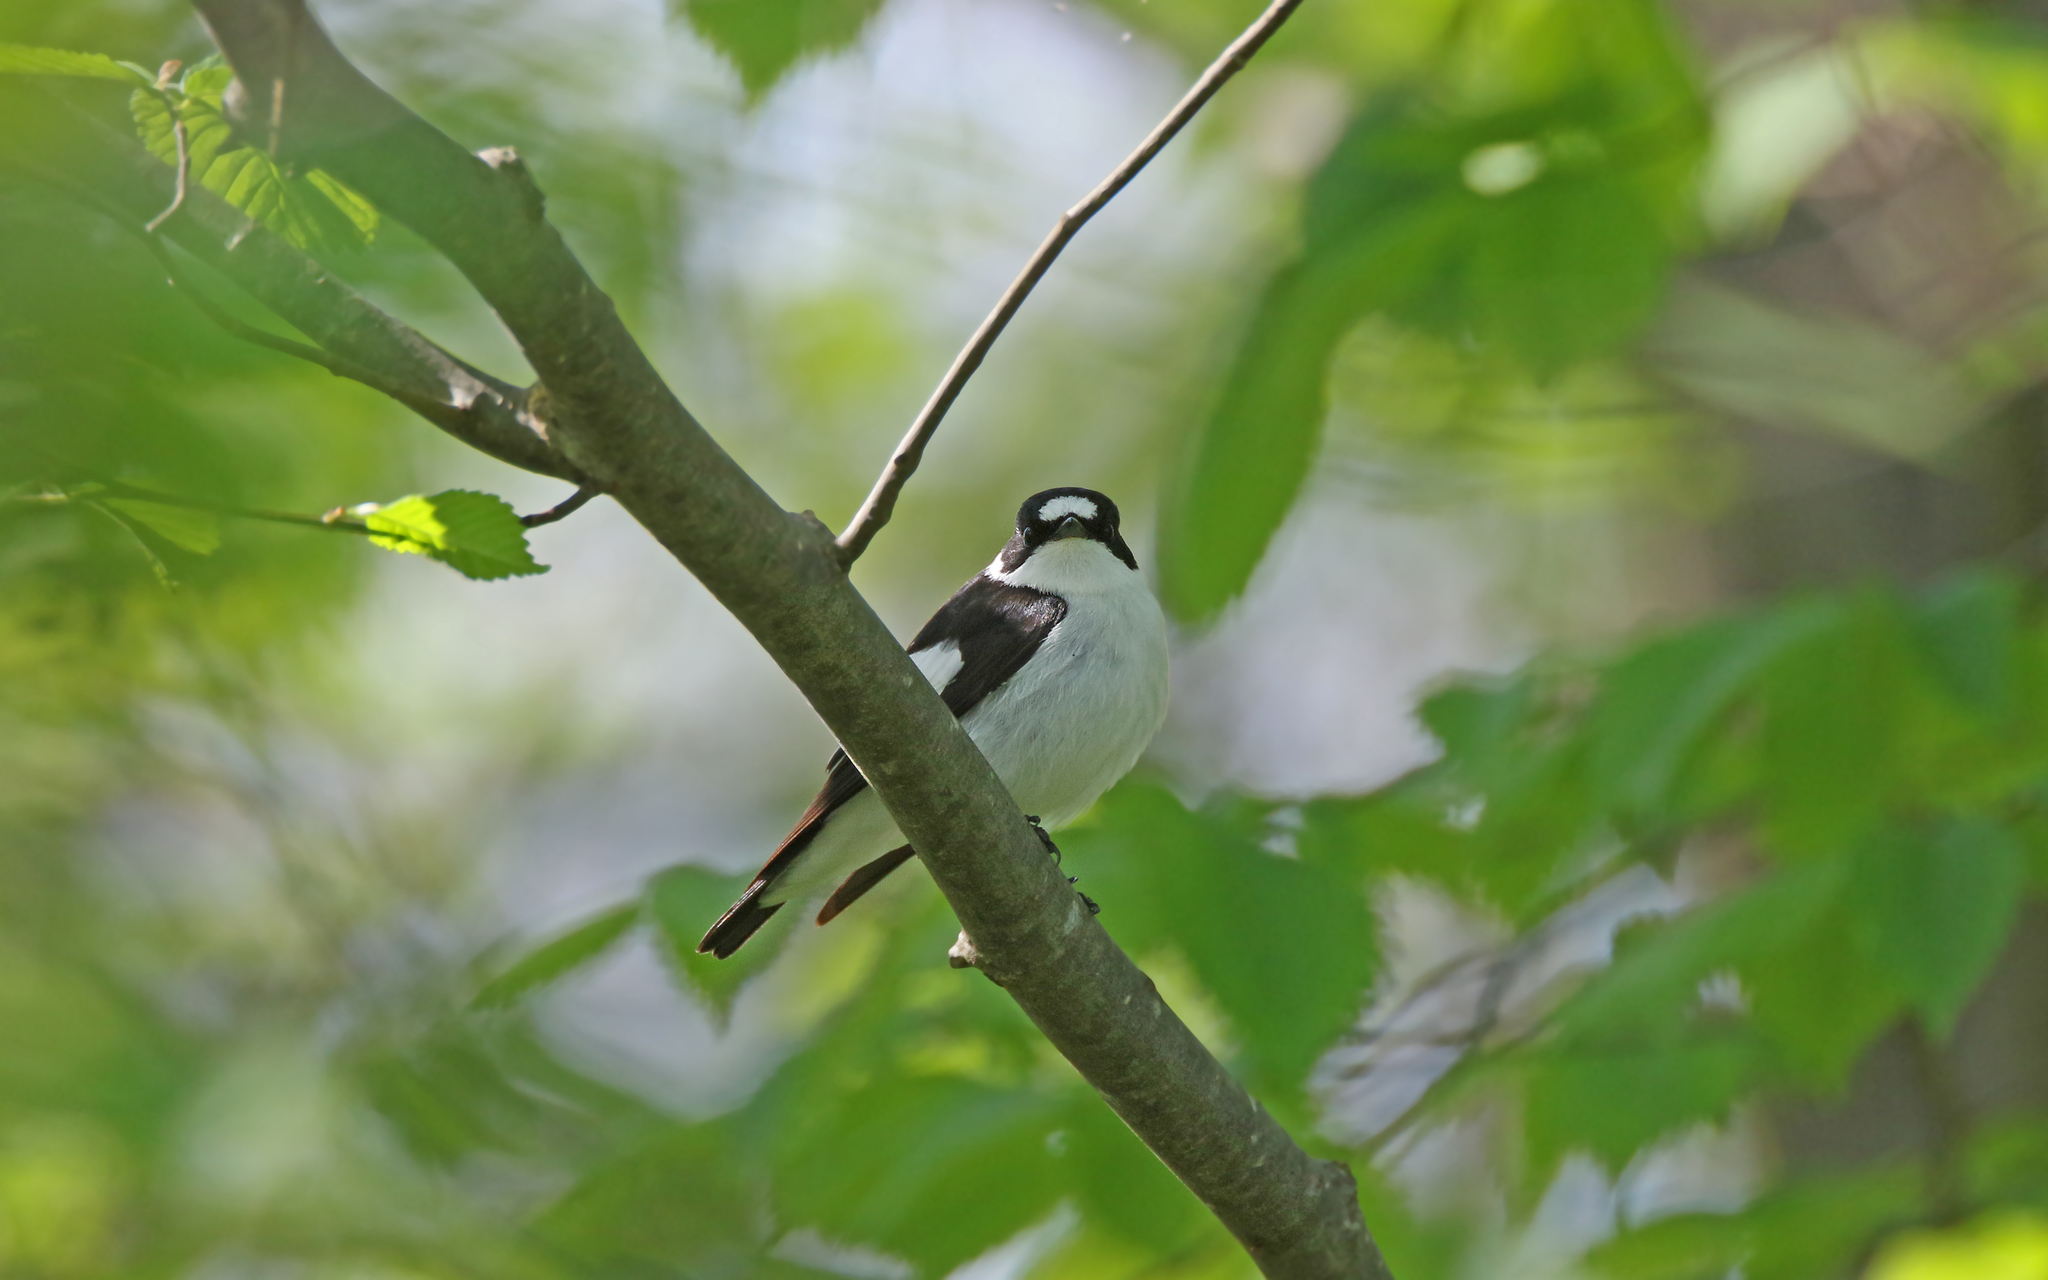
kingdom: Animalia
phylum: Chordata
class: Aves
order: Passeriformes
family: Muscicapidae
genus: Ficedula
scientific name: Ficedula albicollis
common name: Collared flycatcher
